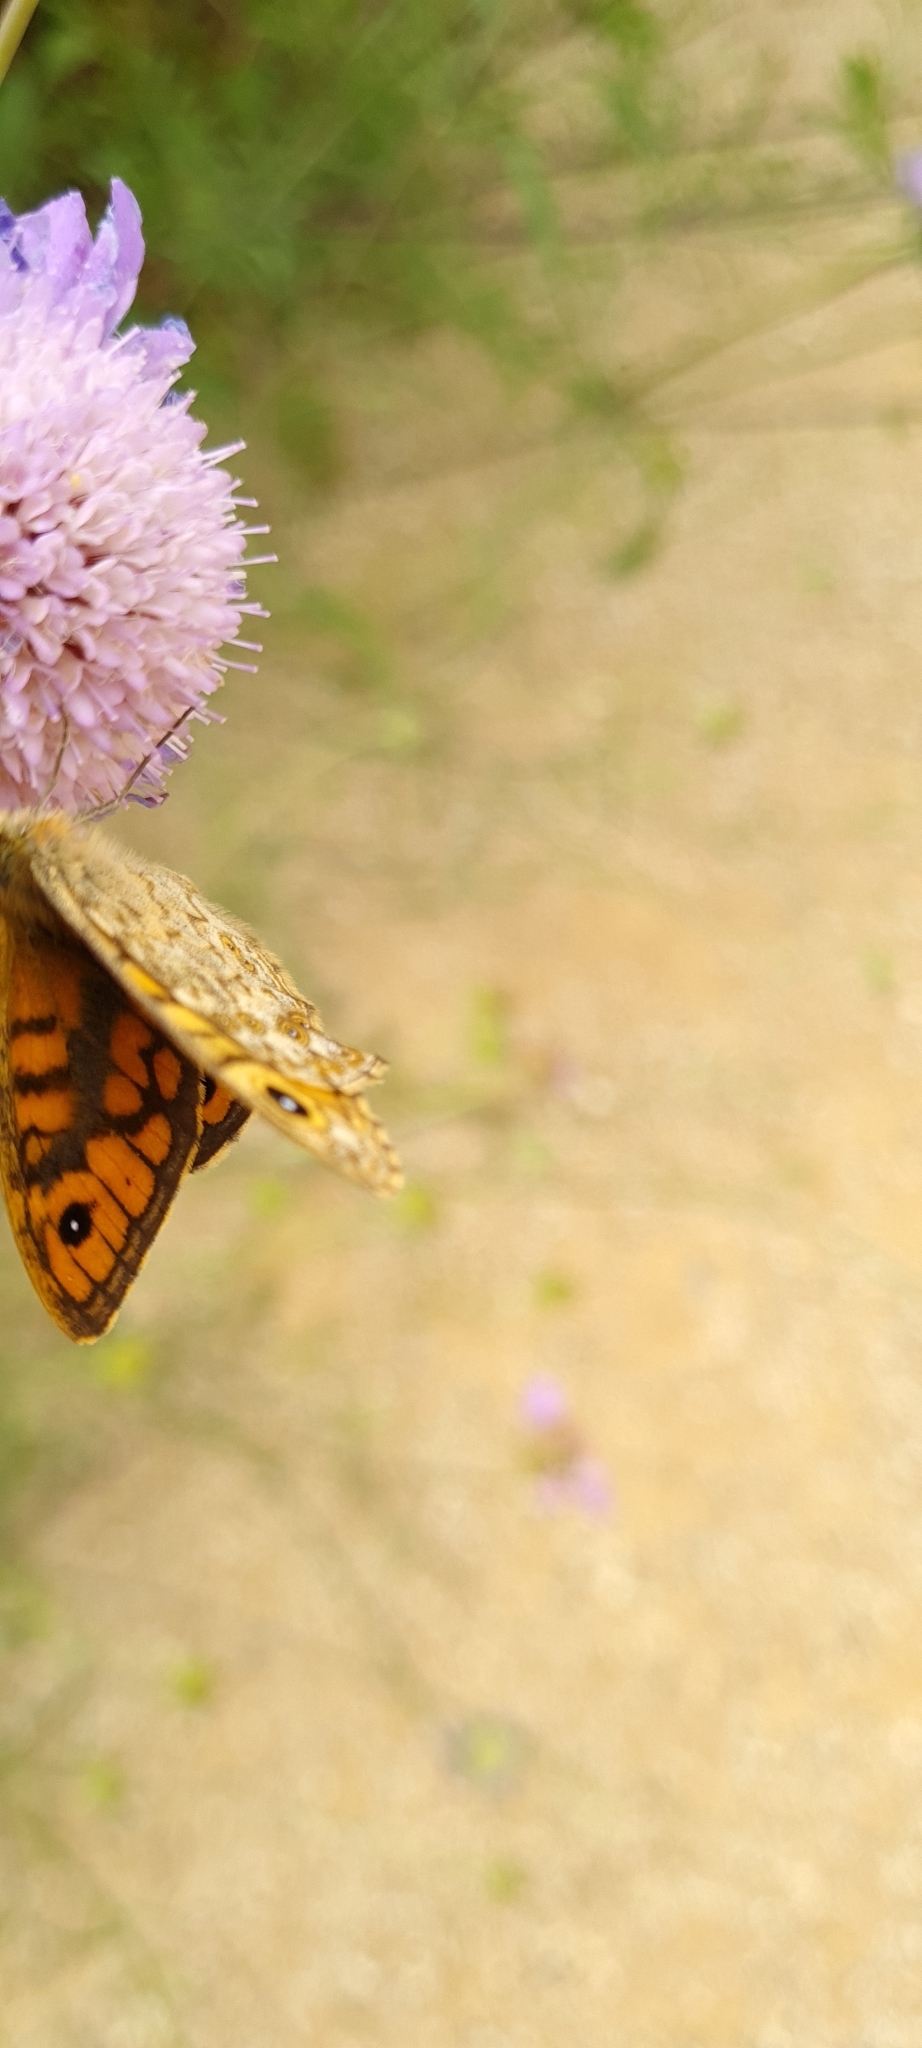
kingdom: Animalia
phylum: Arthropoda
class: Insecta
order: Lepidoptera
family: Nymphalidae
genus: Pararge
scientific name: Pararge Lasiommata megera
